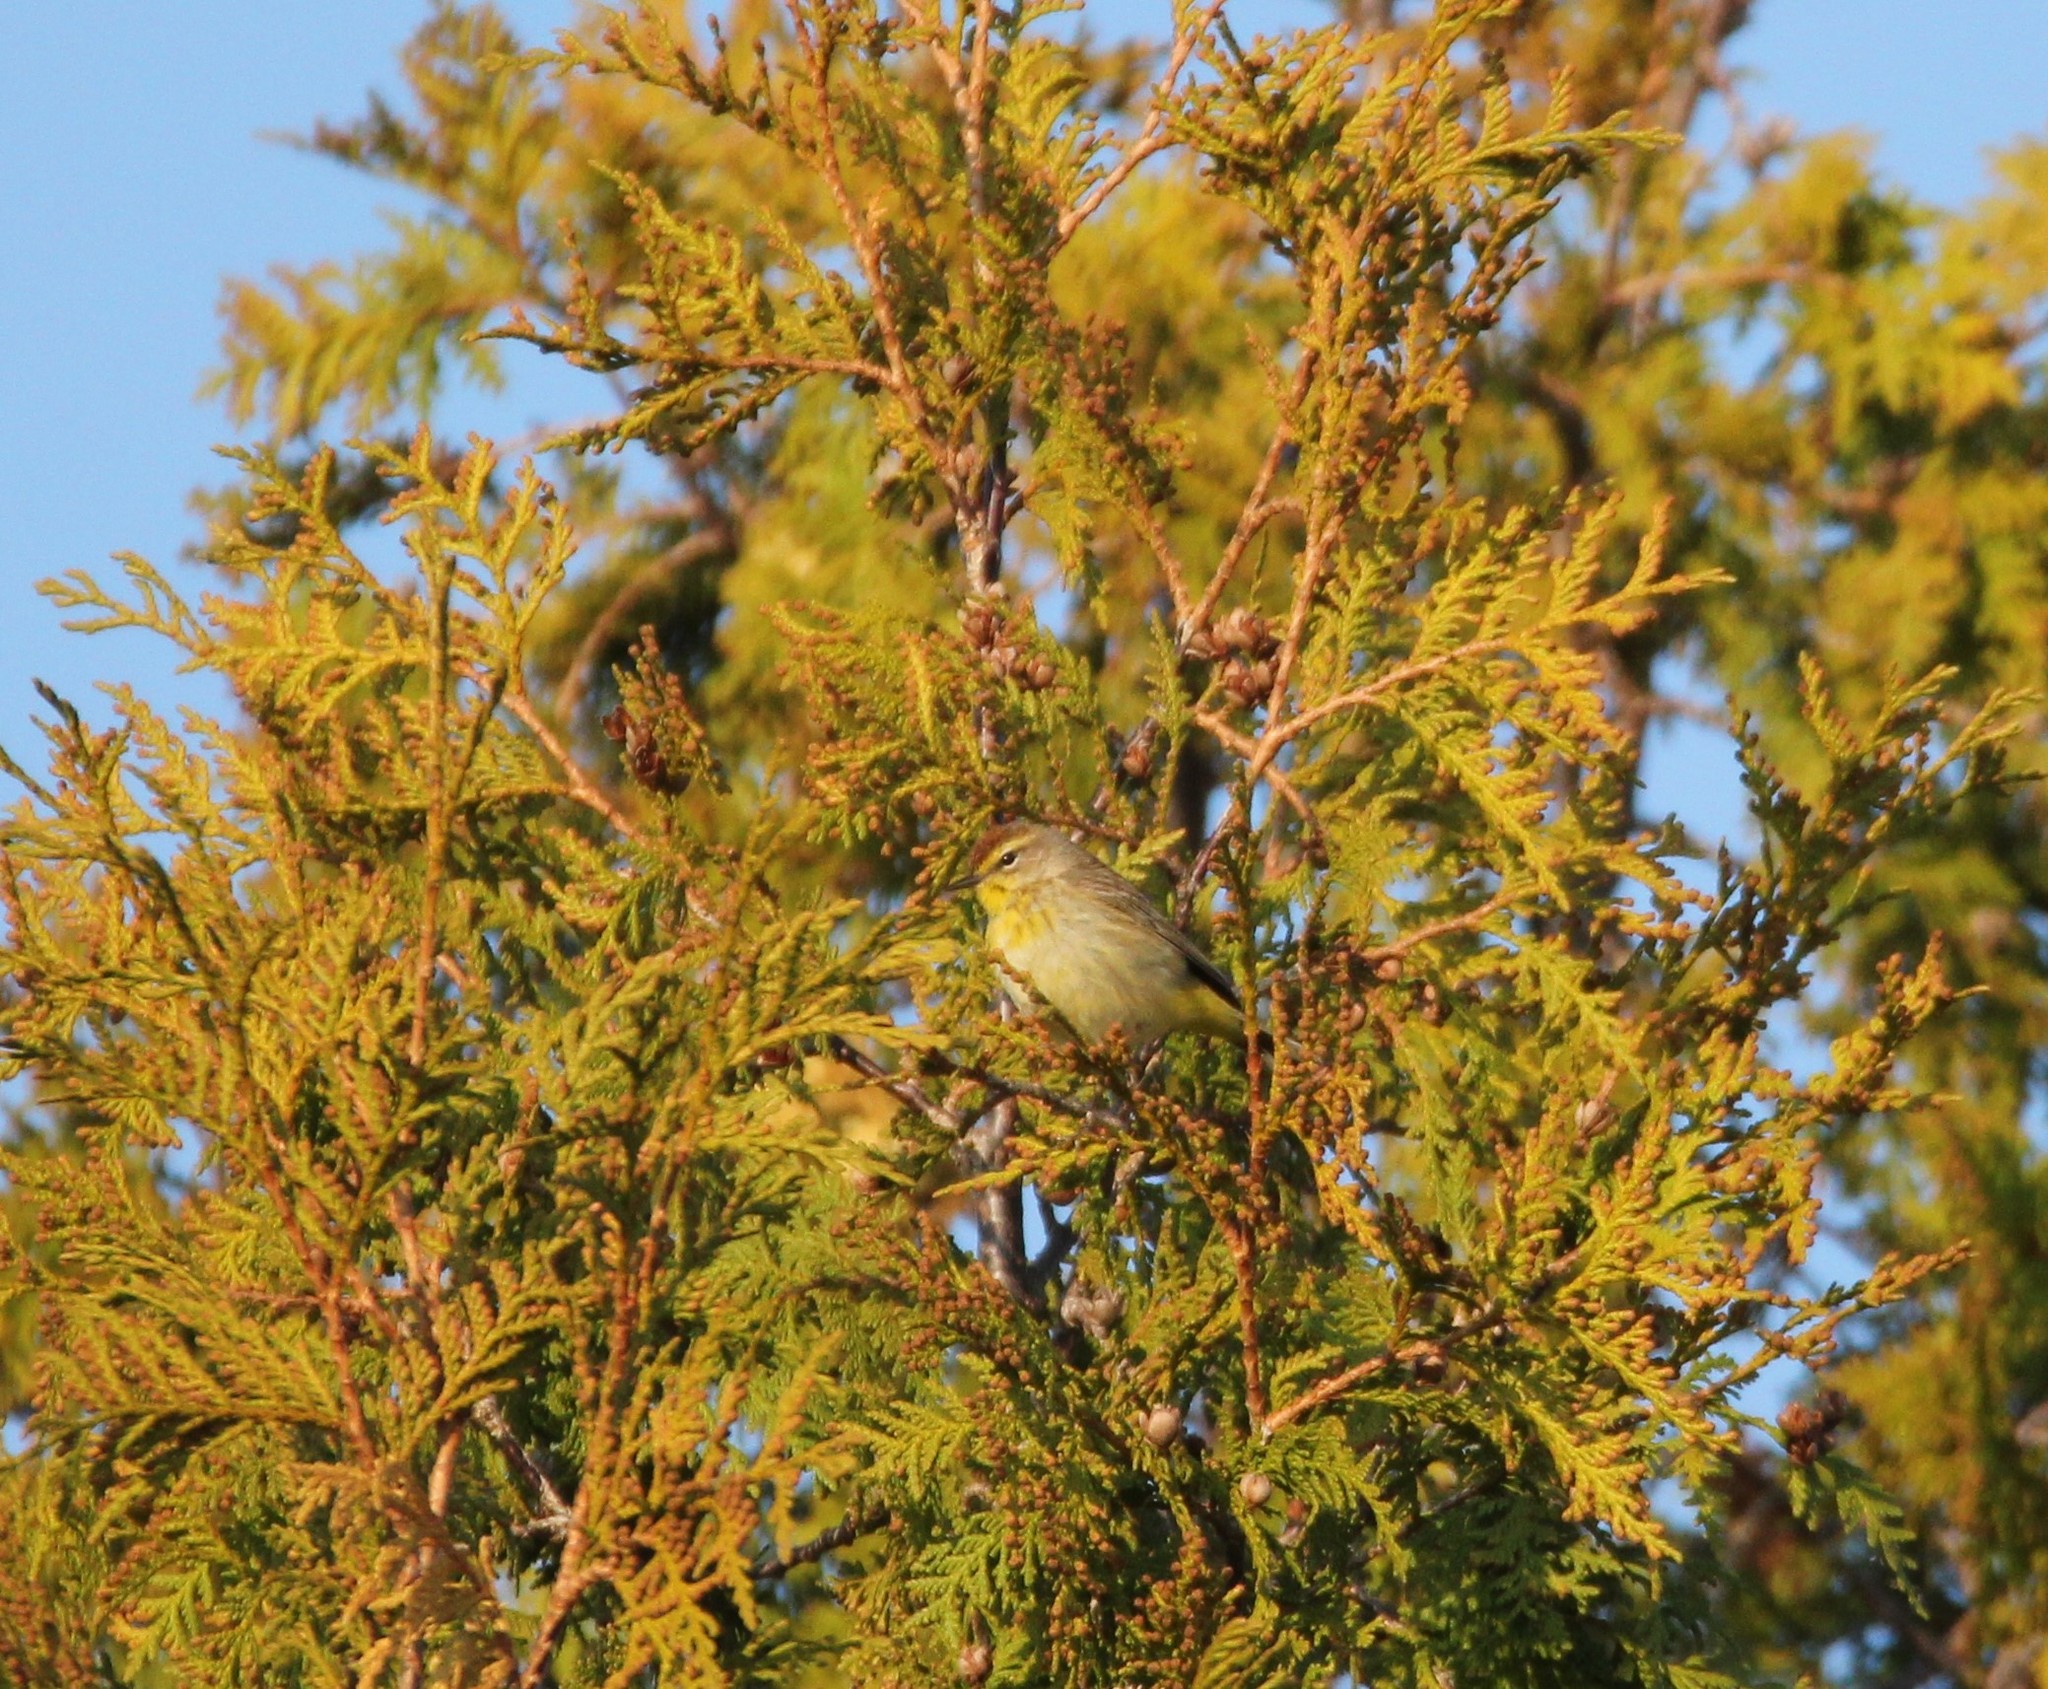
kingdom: Animalia
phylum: Chordata
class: Aves
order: Passeriformes
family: Parulidae
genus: Setophaga
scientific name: Setophaga palmarum
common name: Palm warbler
